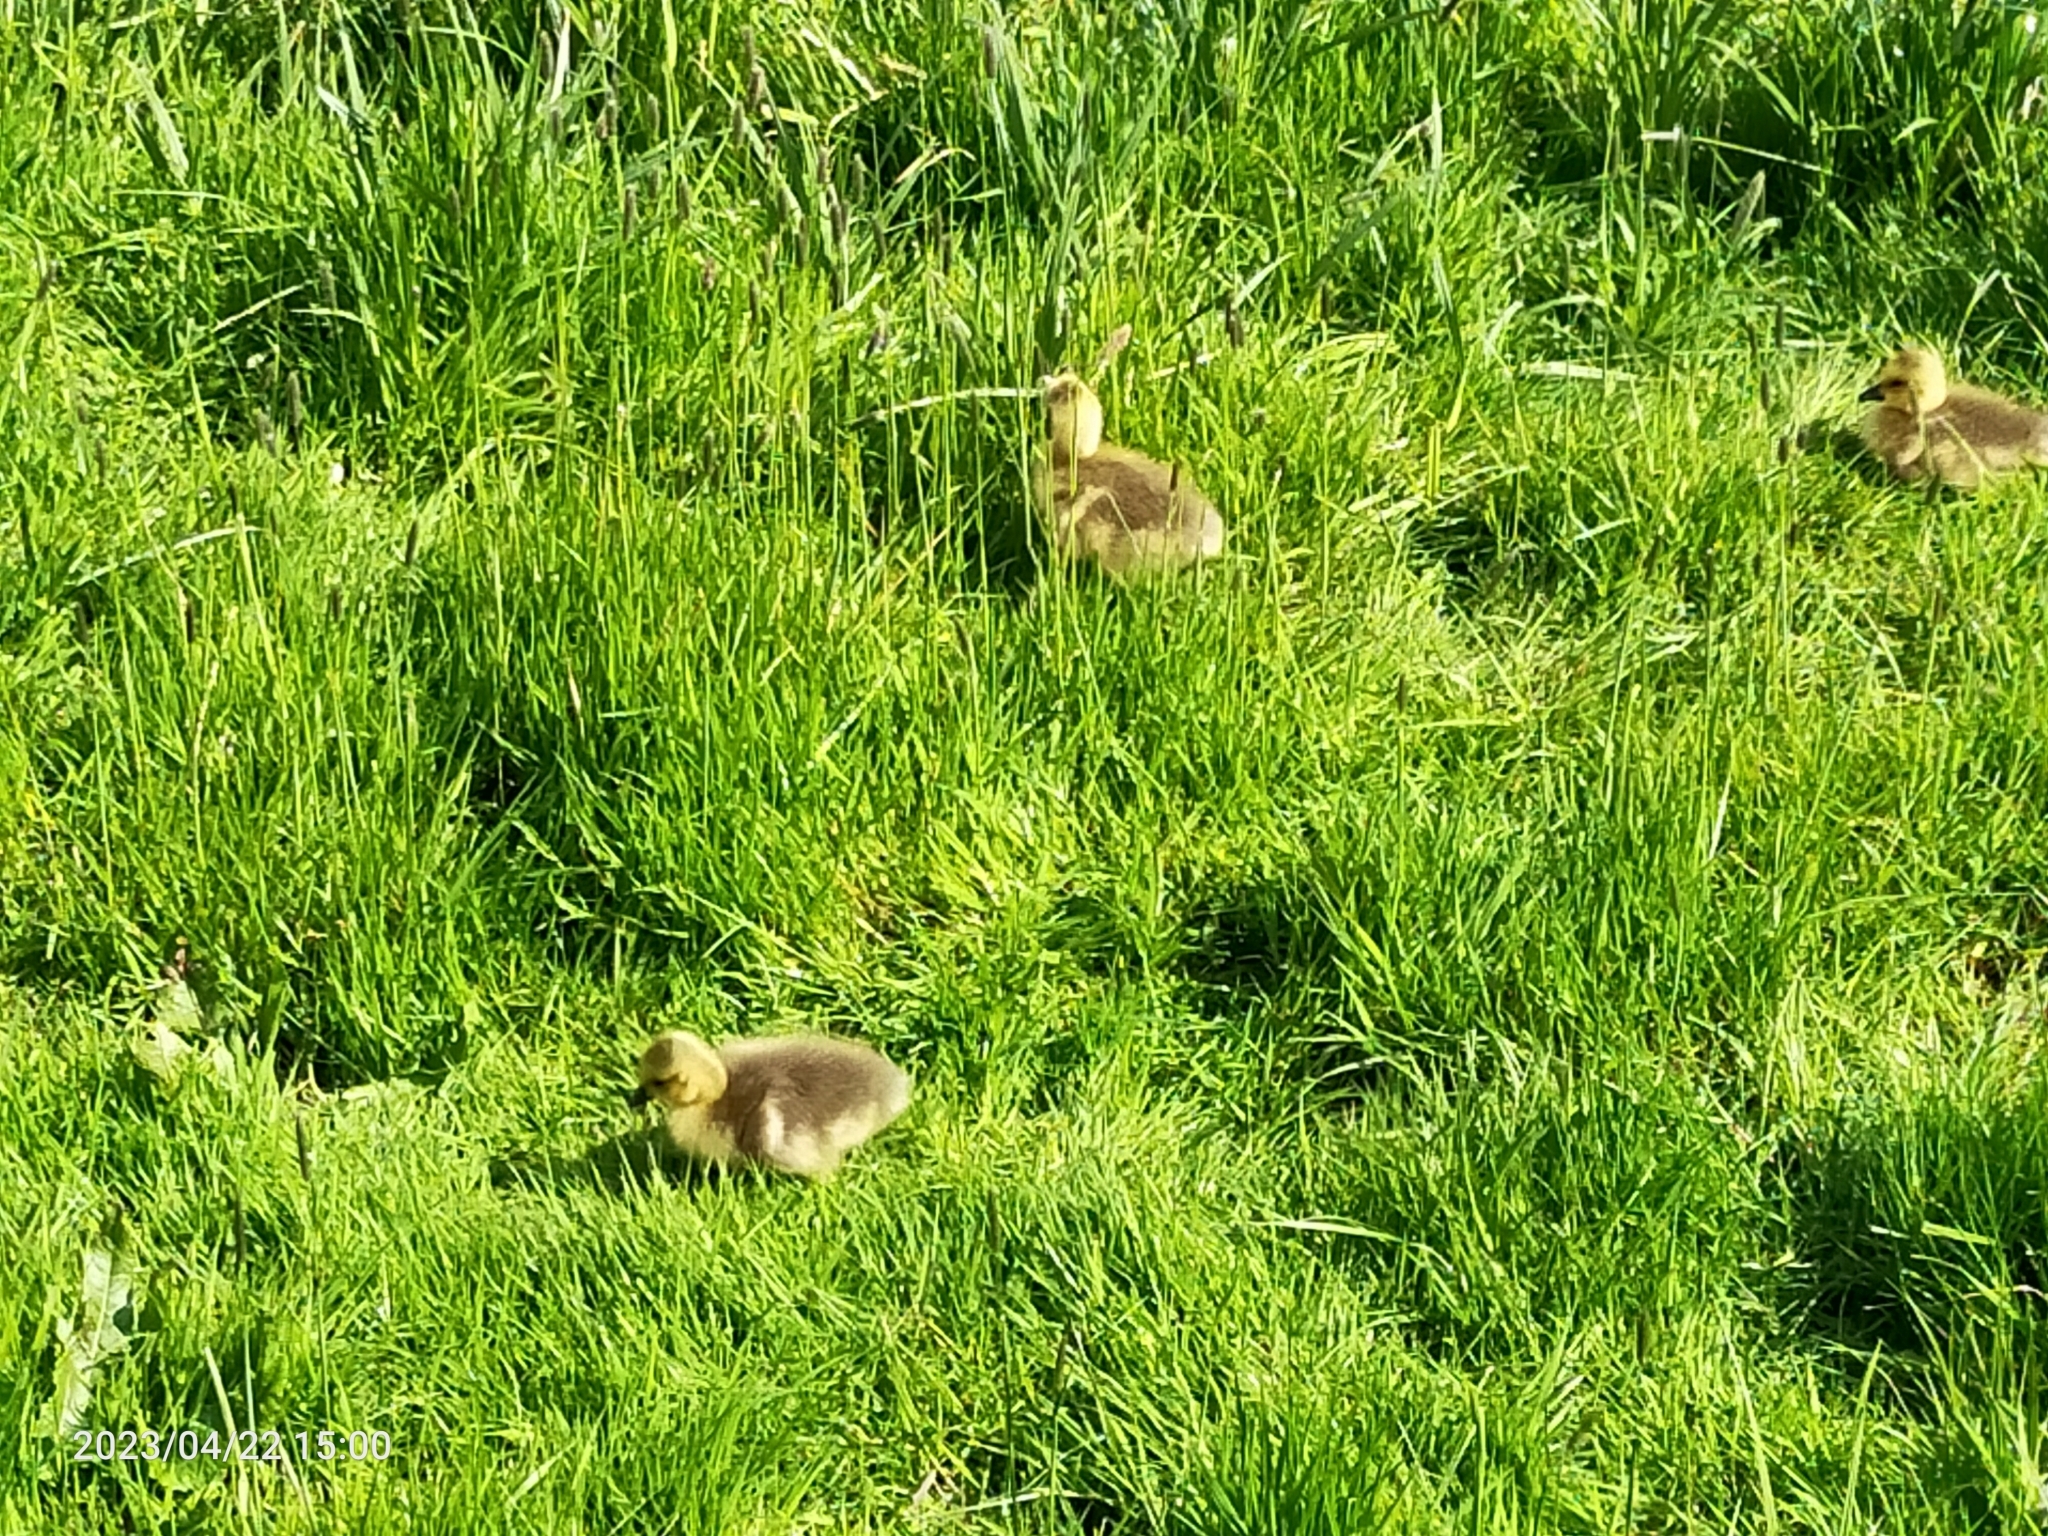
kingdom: Animalia
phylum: Chordata
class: Aves
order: Anseriformes
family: Anatidae
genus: Branta
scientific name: Branta canadensis
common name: Canada goose
